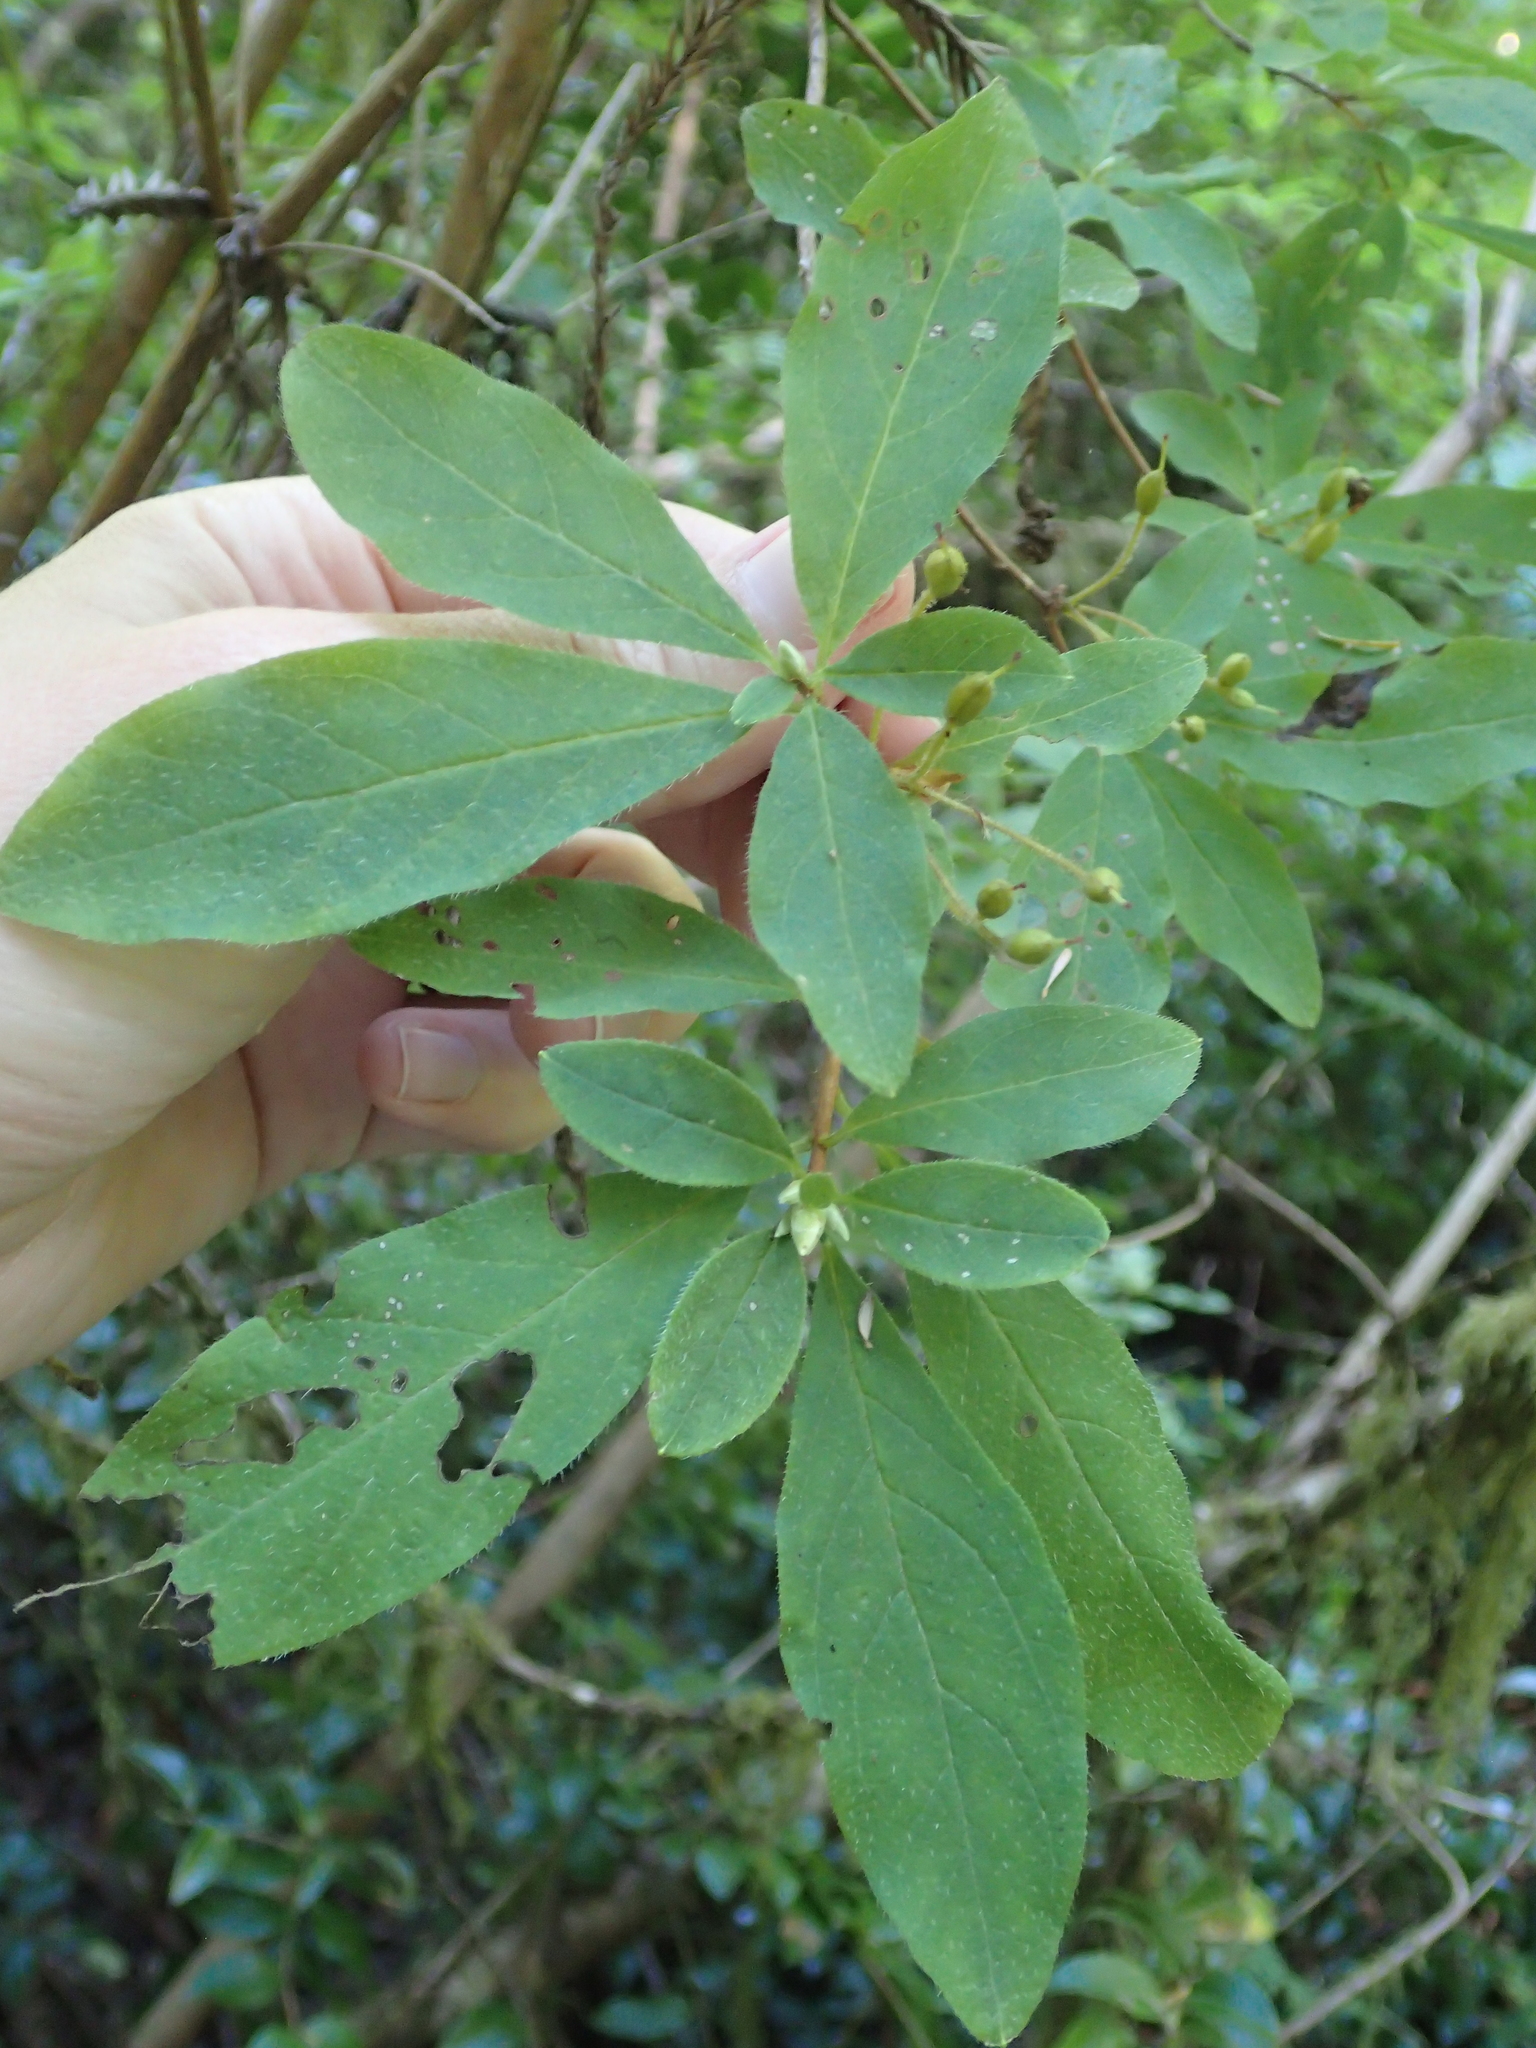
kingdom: Plantae
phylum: Tracheophyta
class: Magnoliopsida
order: Ericales
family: Ericaceae
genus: Rhododendron
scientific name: Rhododendron menziesii
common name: Pacific menziesia
